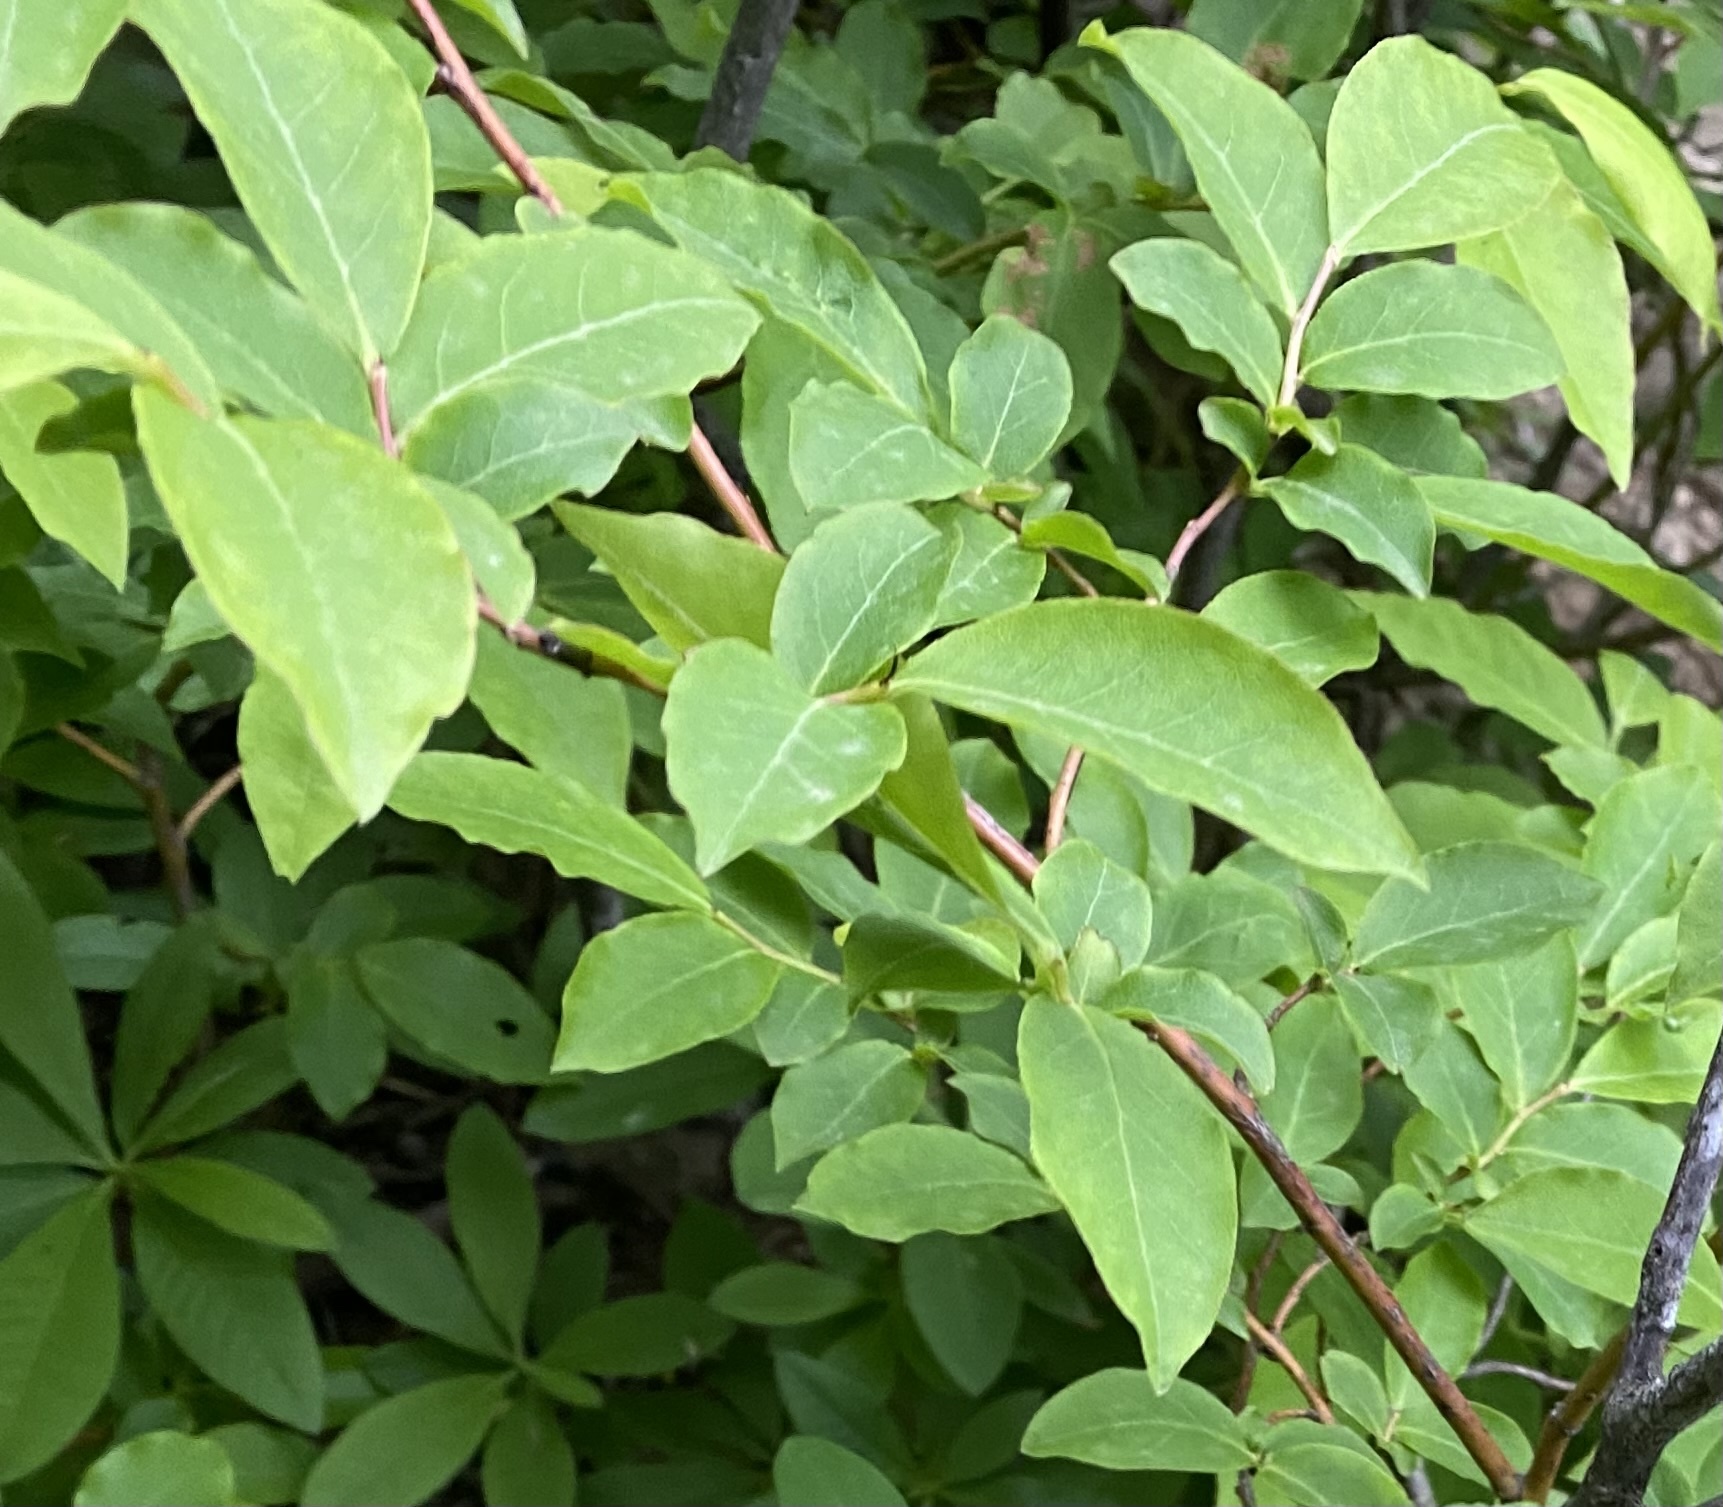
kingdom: Plantae
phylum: Tracheophyta
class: Magnoliopsida
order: Ericales
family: Ericaceae
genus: Vaccinium
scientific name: Vaccinium arctostaphylos
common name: Caucasian whortleberry
